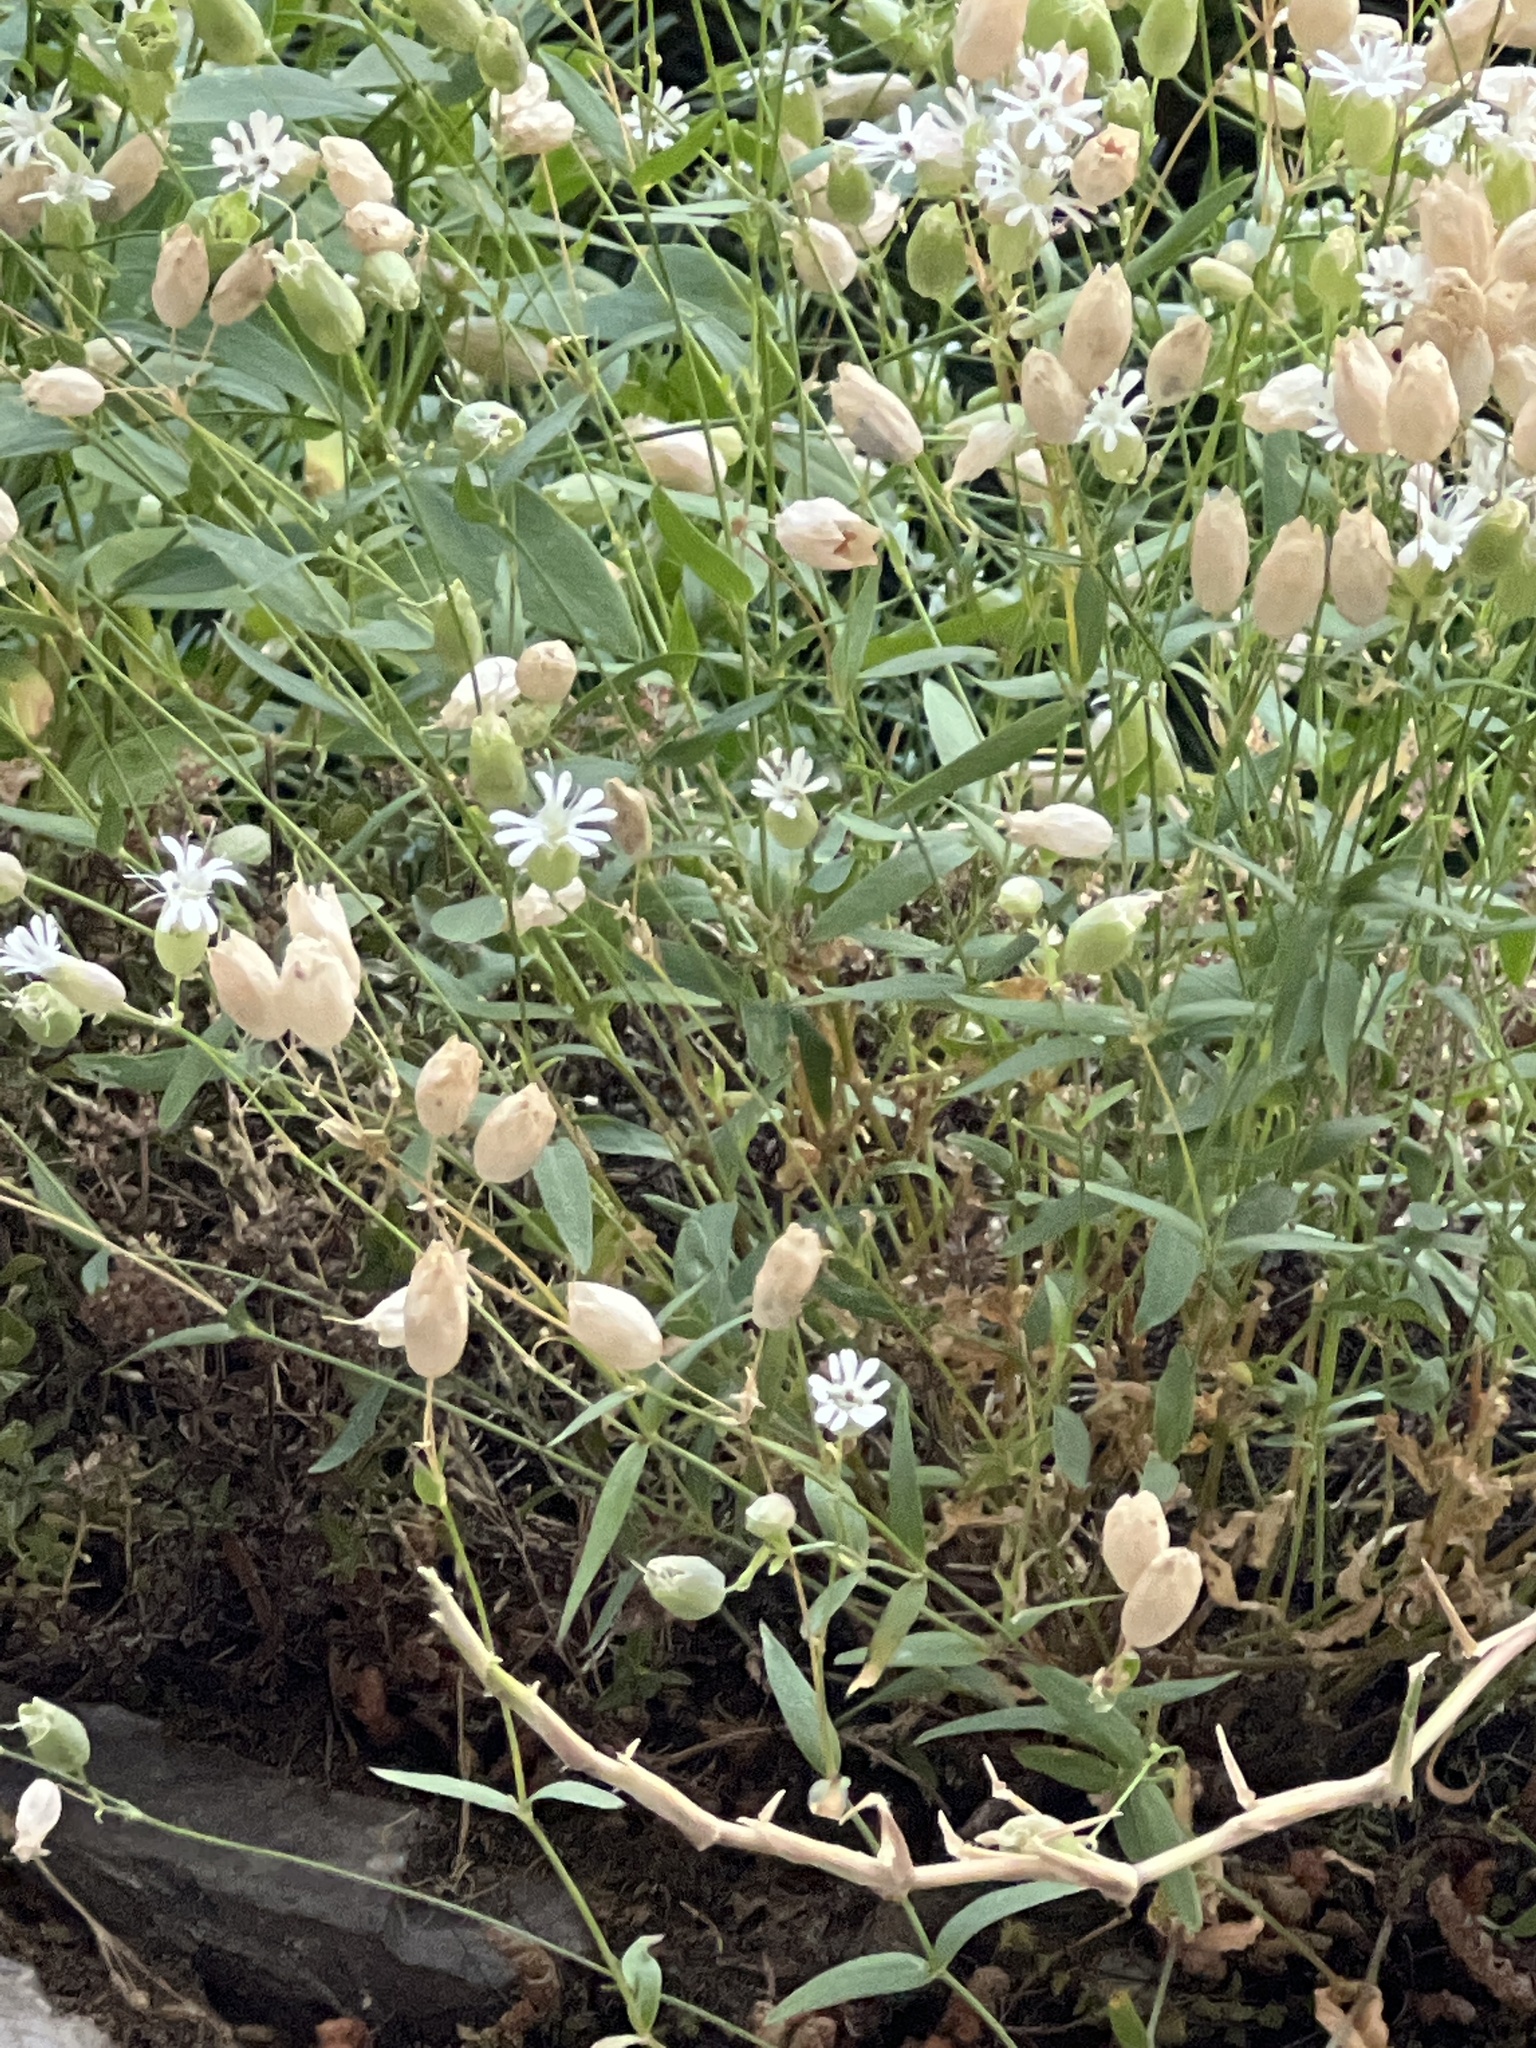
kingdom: Plantae
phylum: Tracheophyta
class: Magnoliopsida
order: Caryophyllales
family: Caryophyllaceae
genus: Silene
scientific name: Silene vulgaris
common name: Bladder campion
